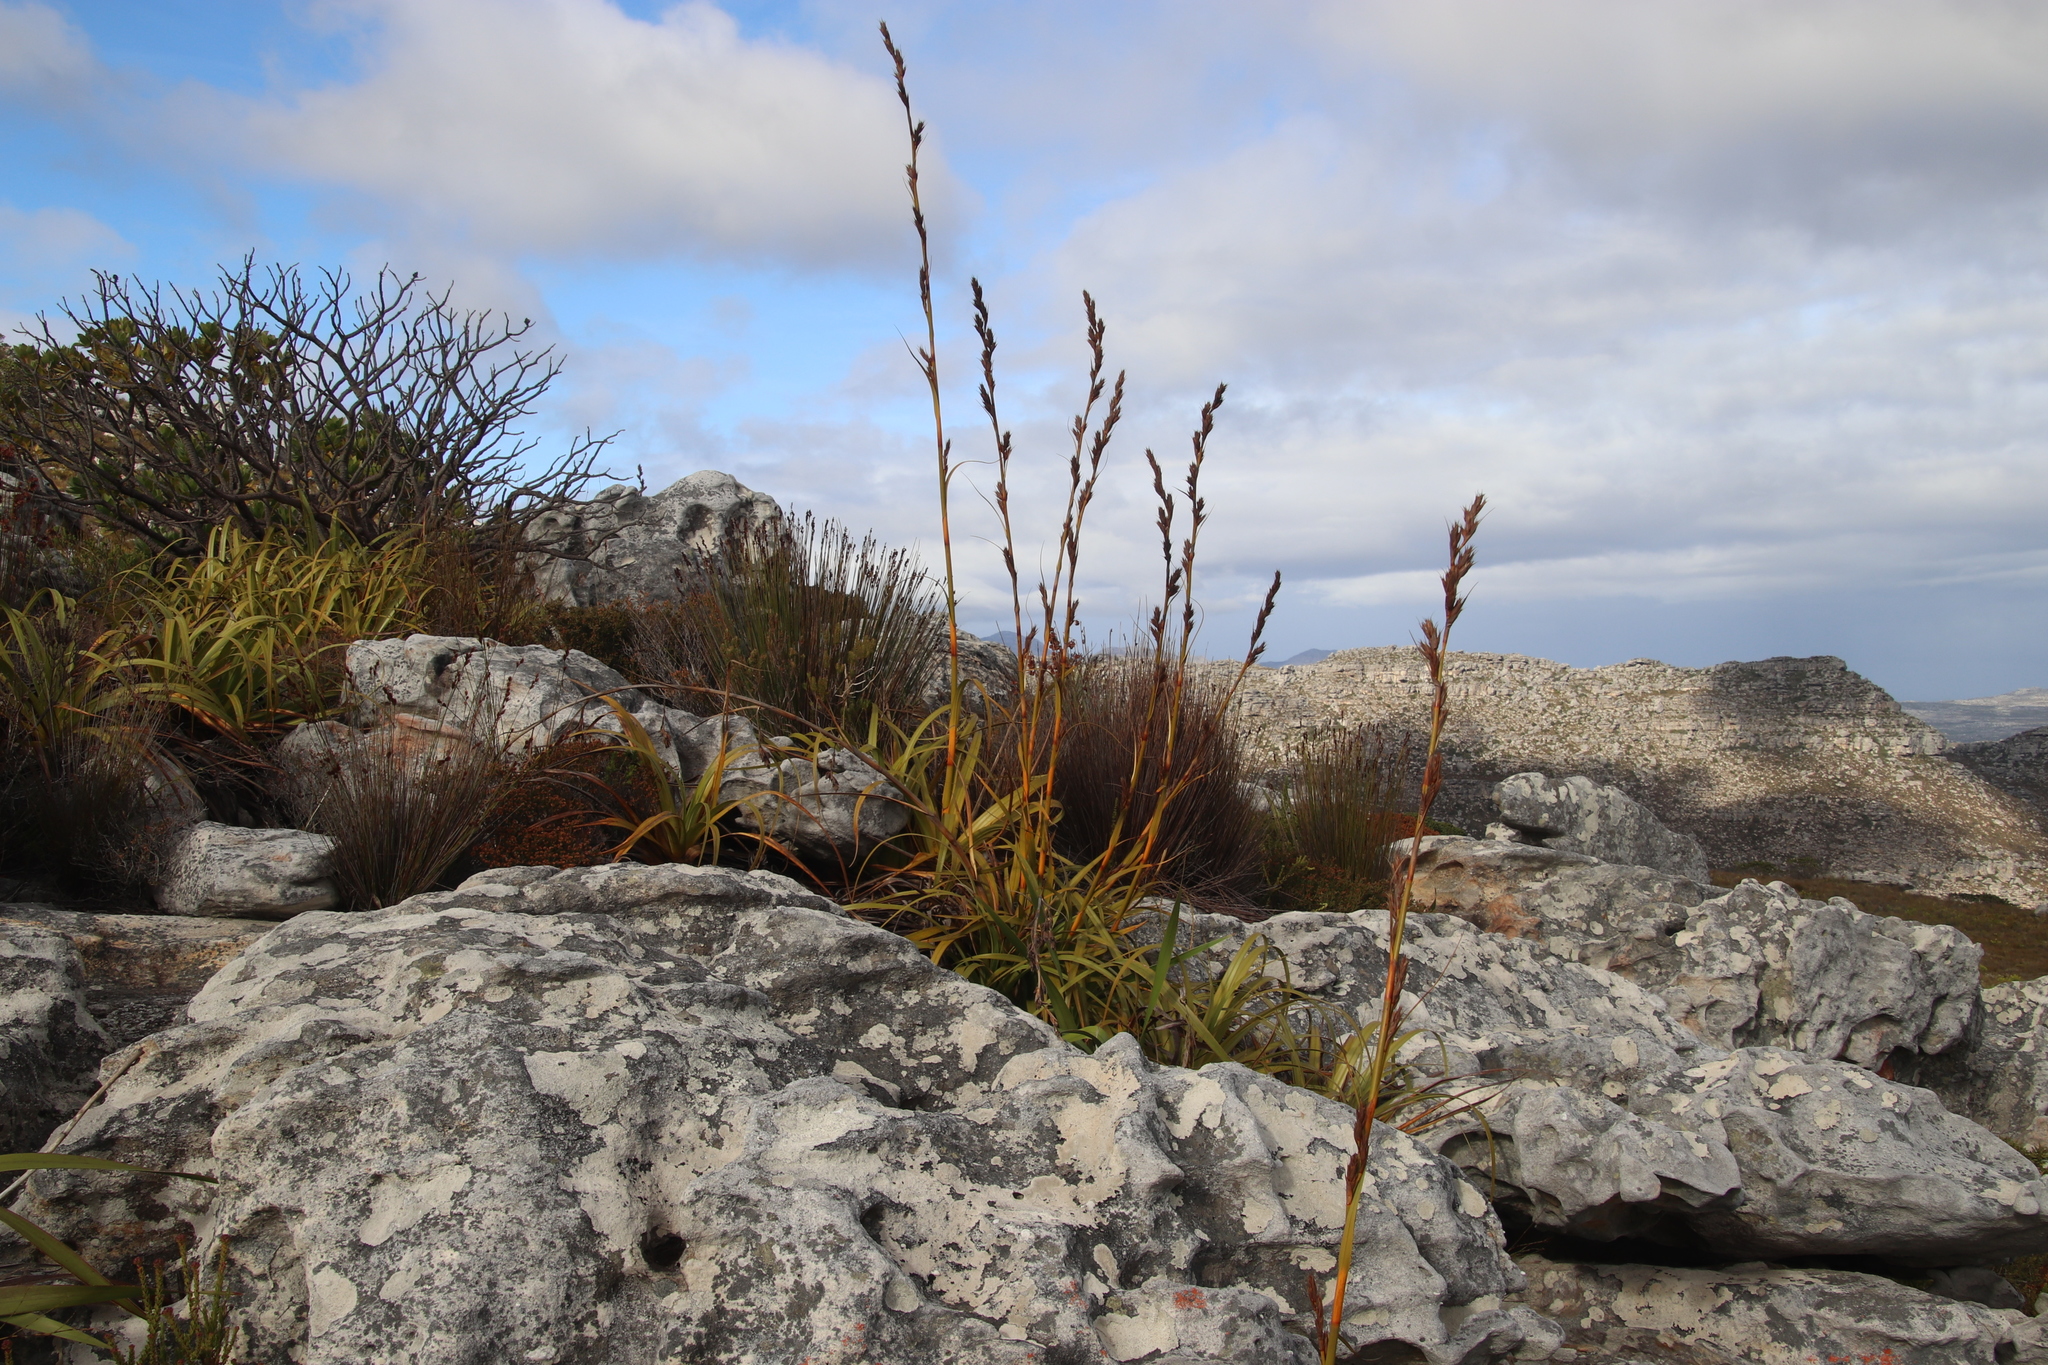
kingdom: Plantae
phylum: Tracheophyta
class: Liliopsida
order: Poales
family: Cyperaceae
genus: Tetraria
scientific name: Tetraria thermalis
